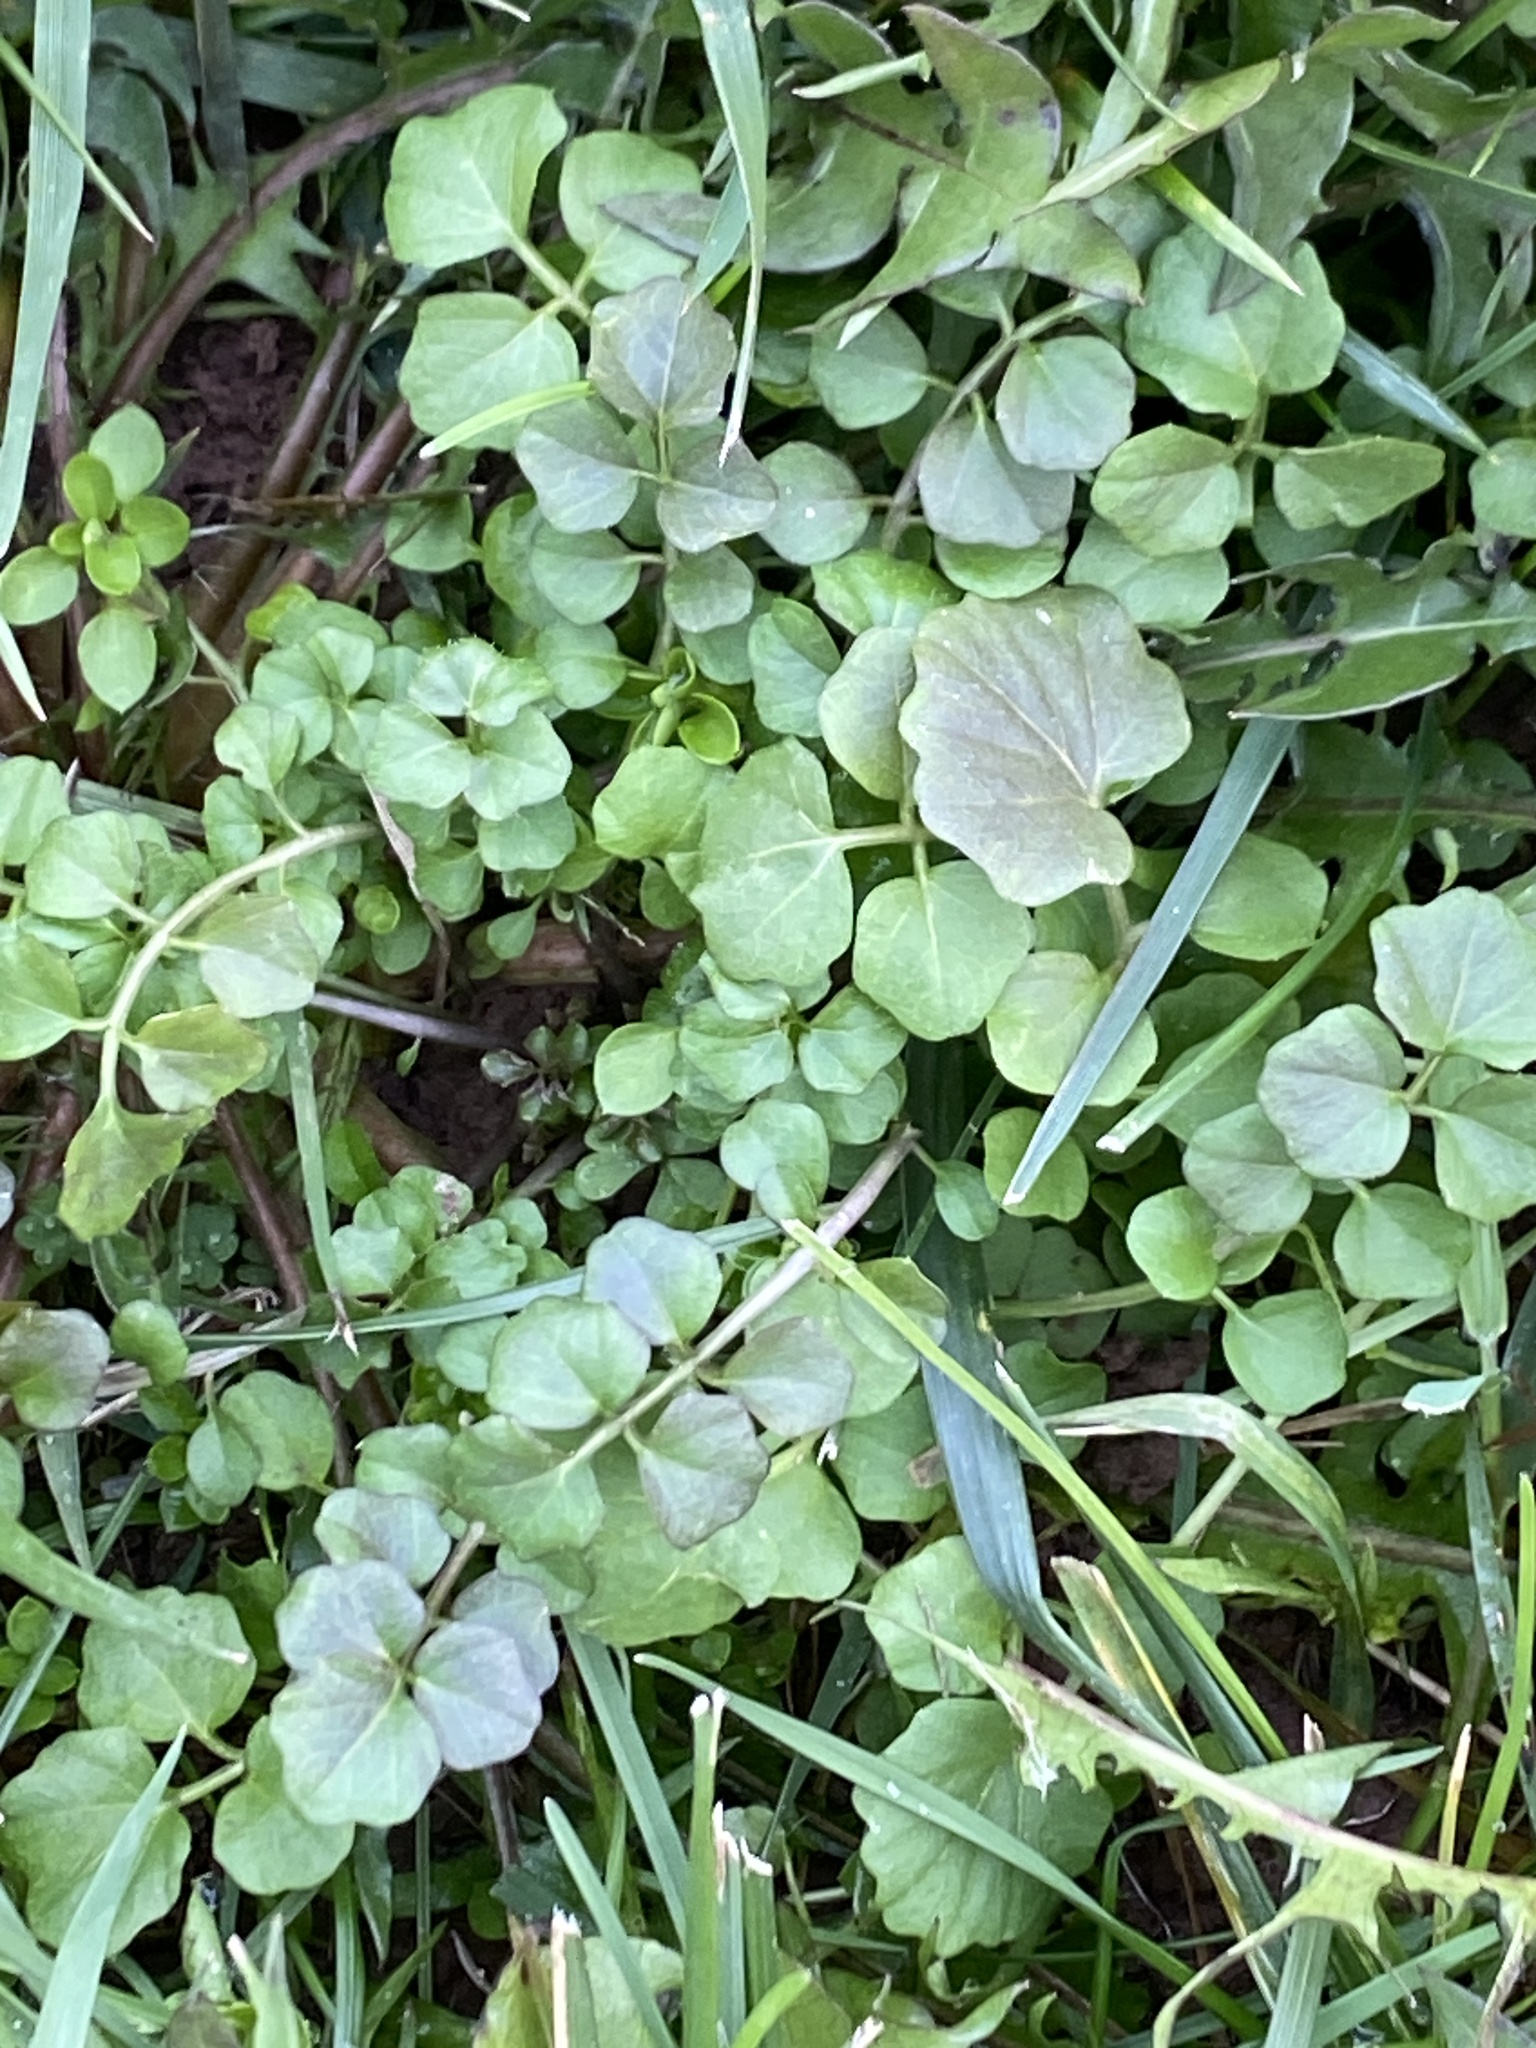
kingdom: Plantae
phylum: Tracheophyta
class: Magnoliopsida
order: Brassicales
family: Brassicaceae
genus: Cardamine
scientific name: Cardamine hirsuta
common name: Hairy bittercress
